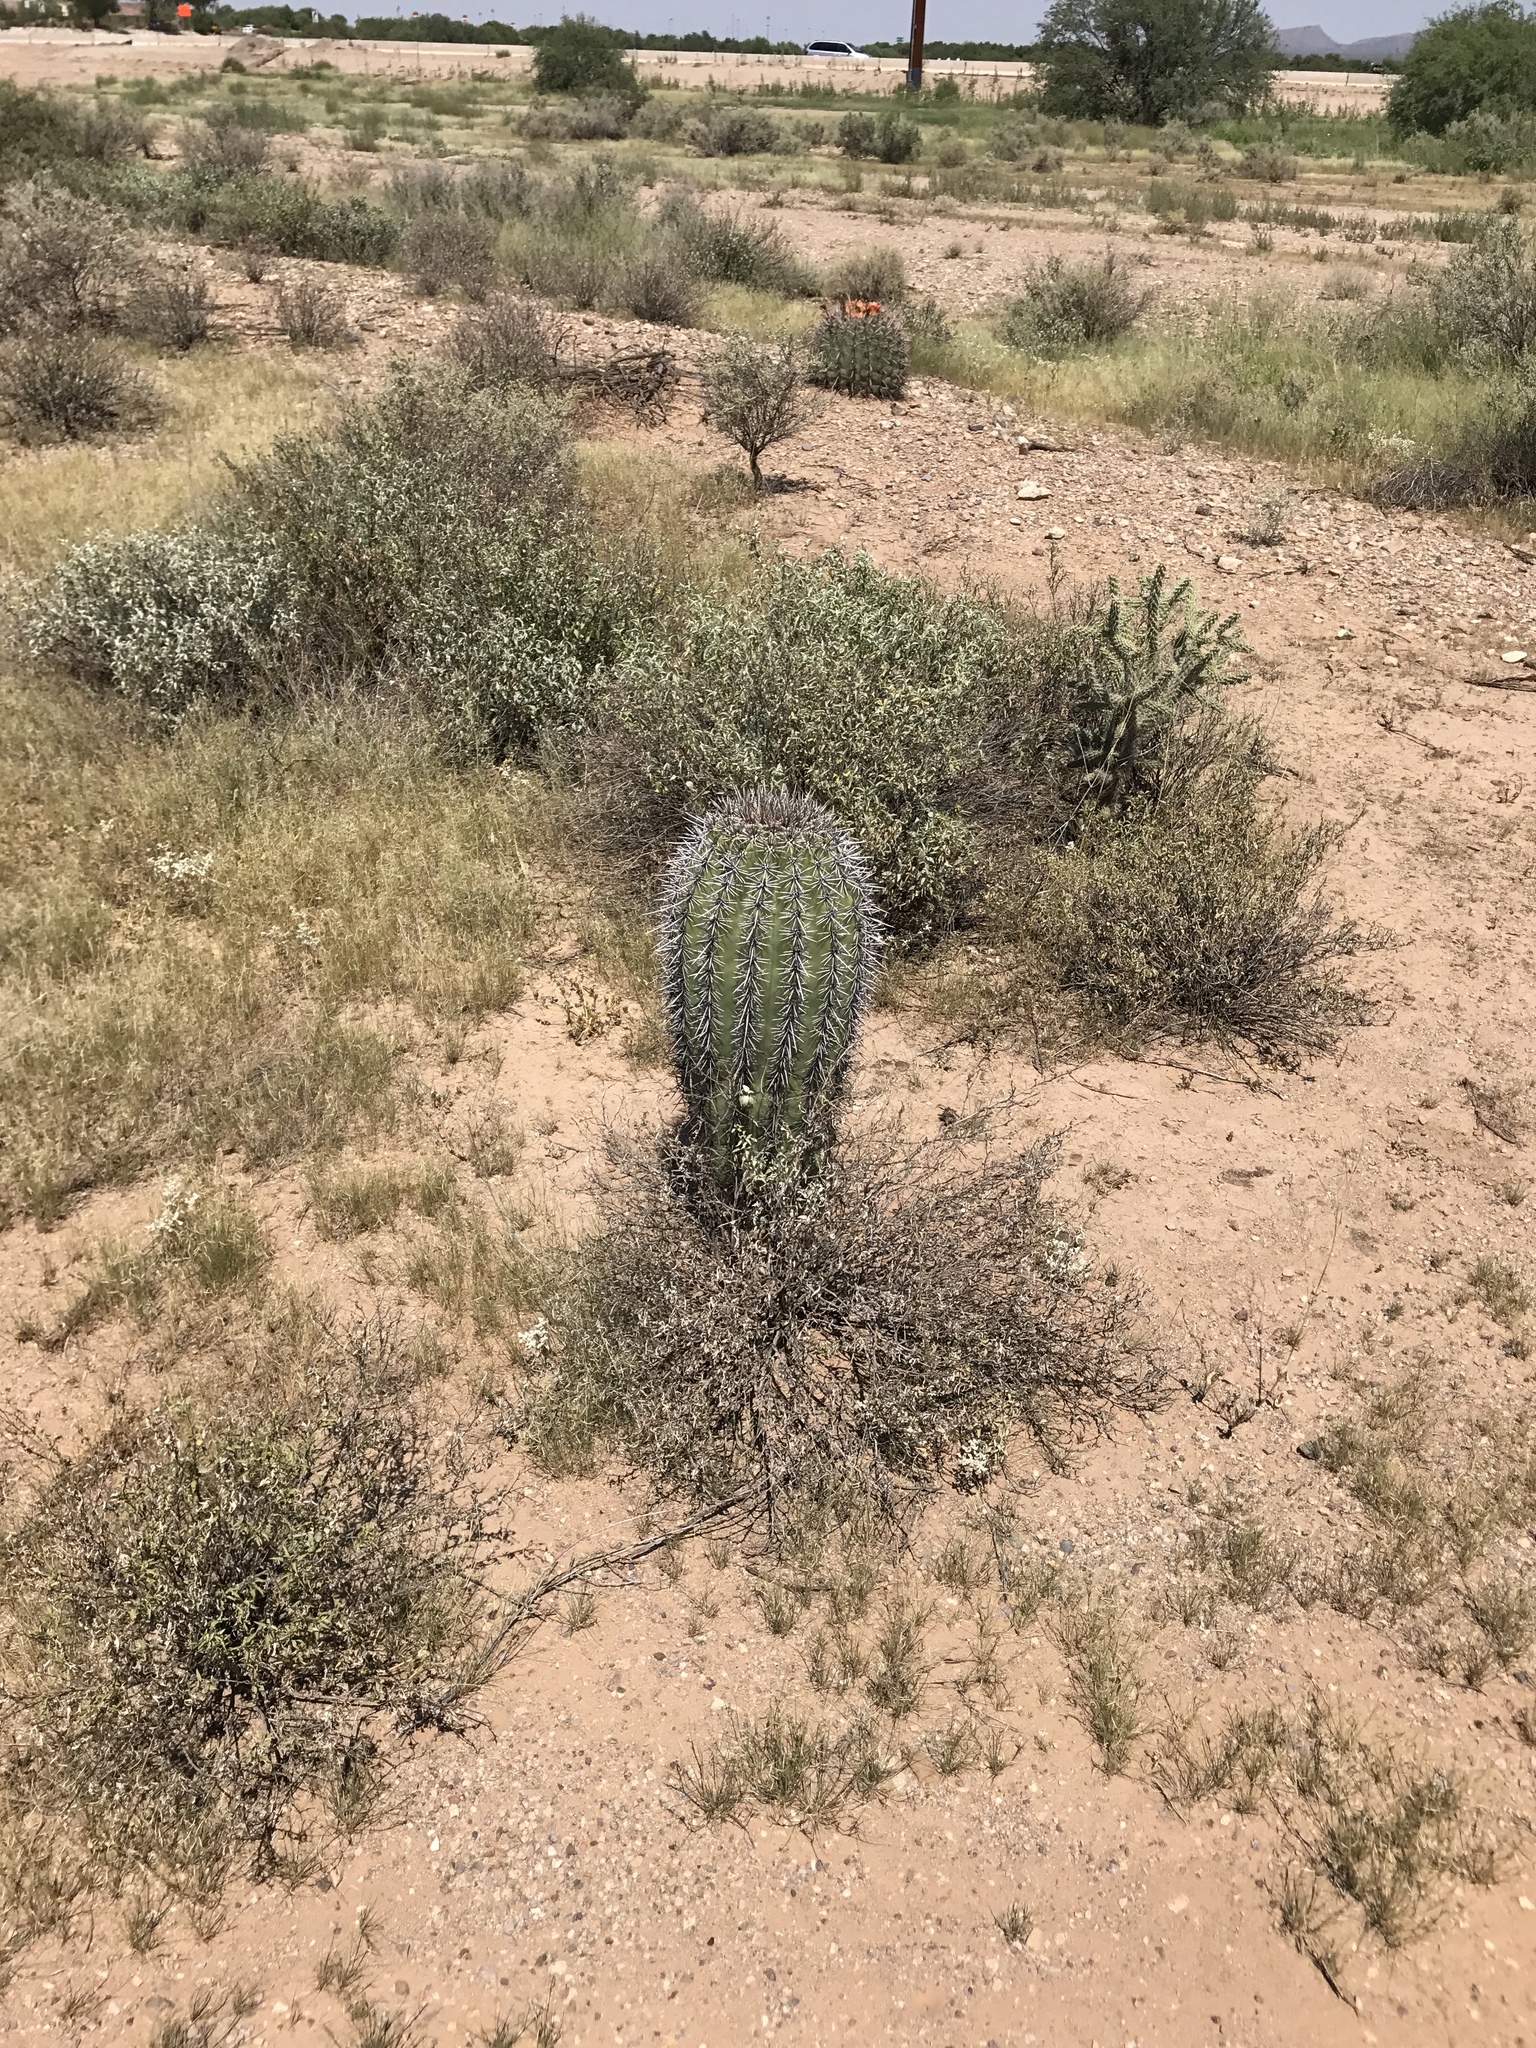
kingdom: Plantae
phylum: Tracheophyta
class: Magnoliopsida
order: Caryophyllales
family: Cactaceae
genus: Carnegiea
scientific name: Carnegiea gigantea
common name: Saguaro
